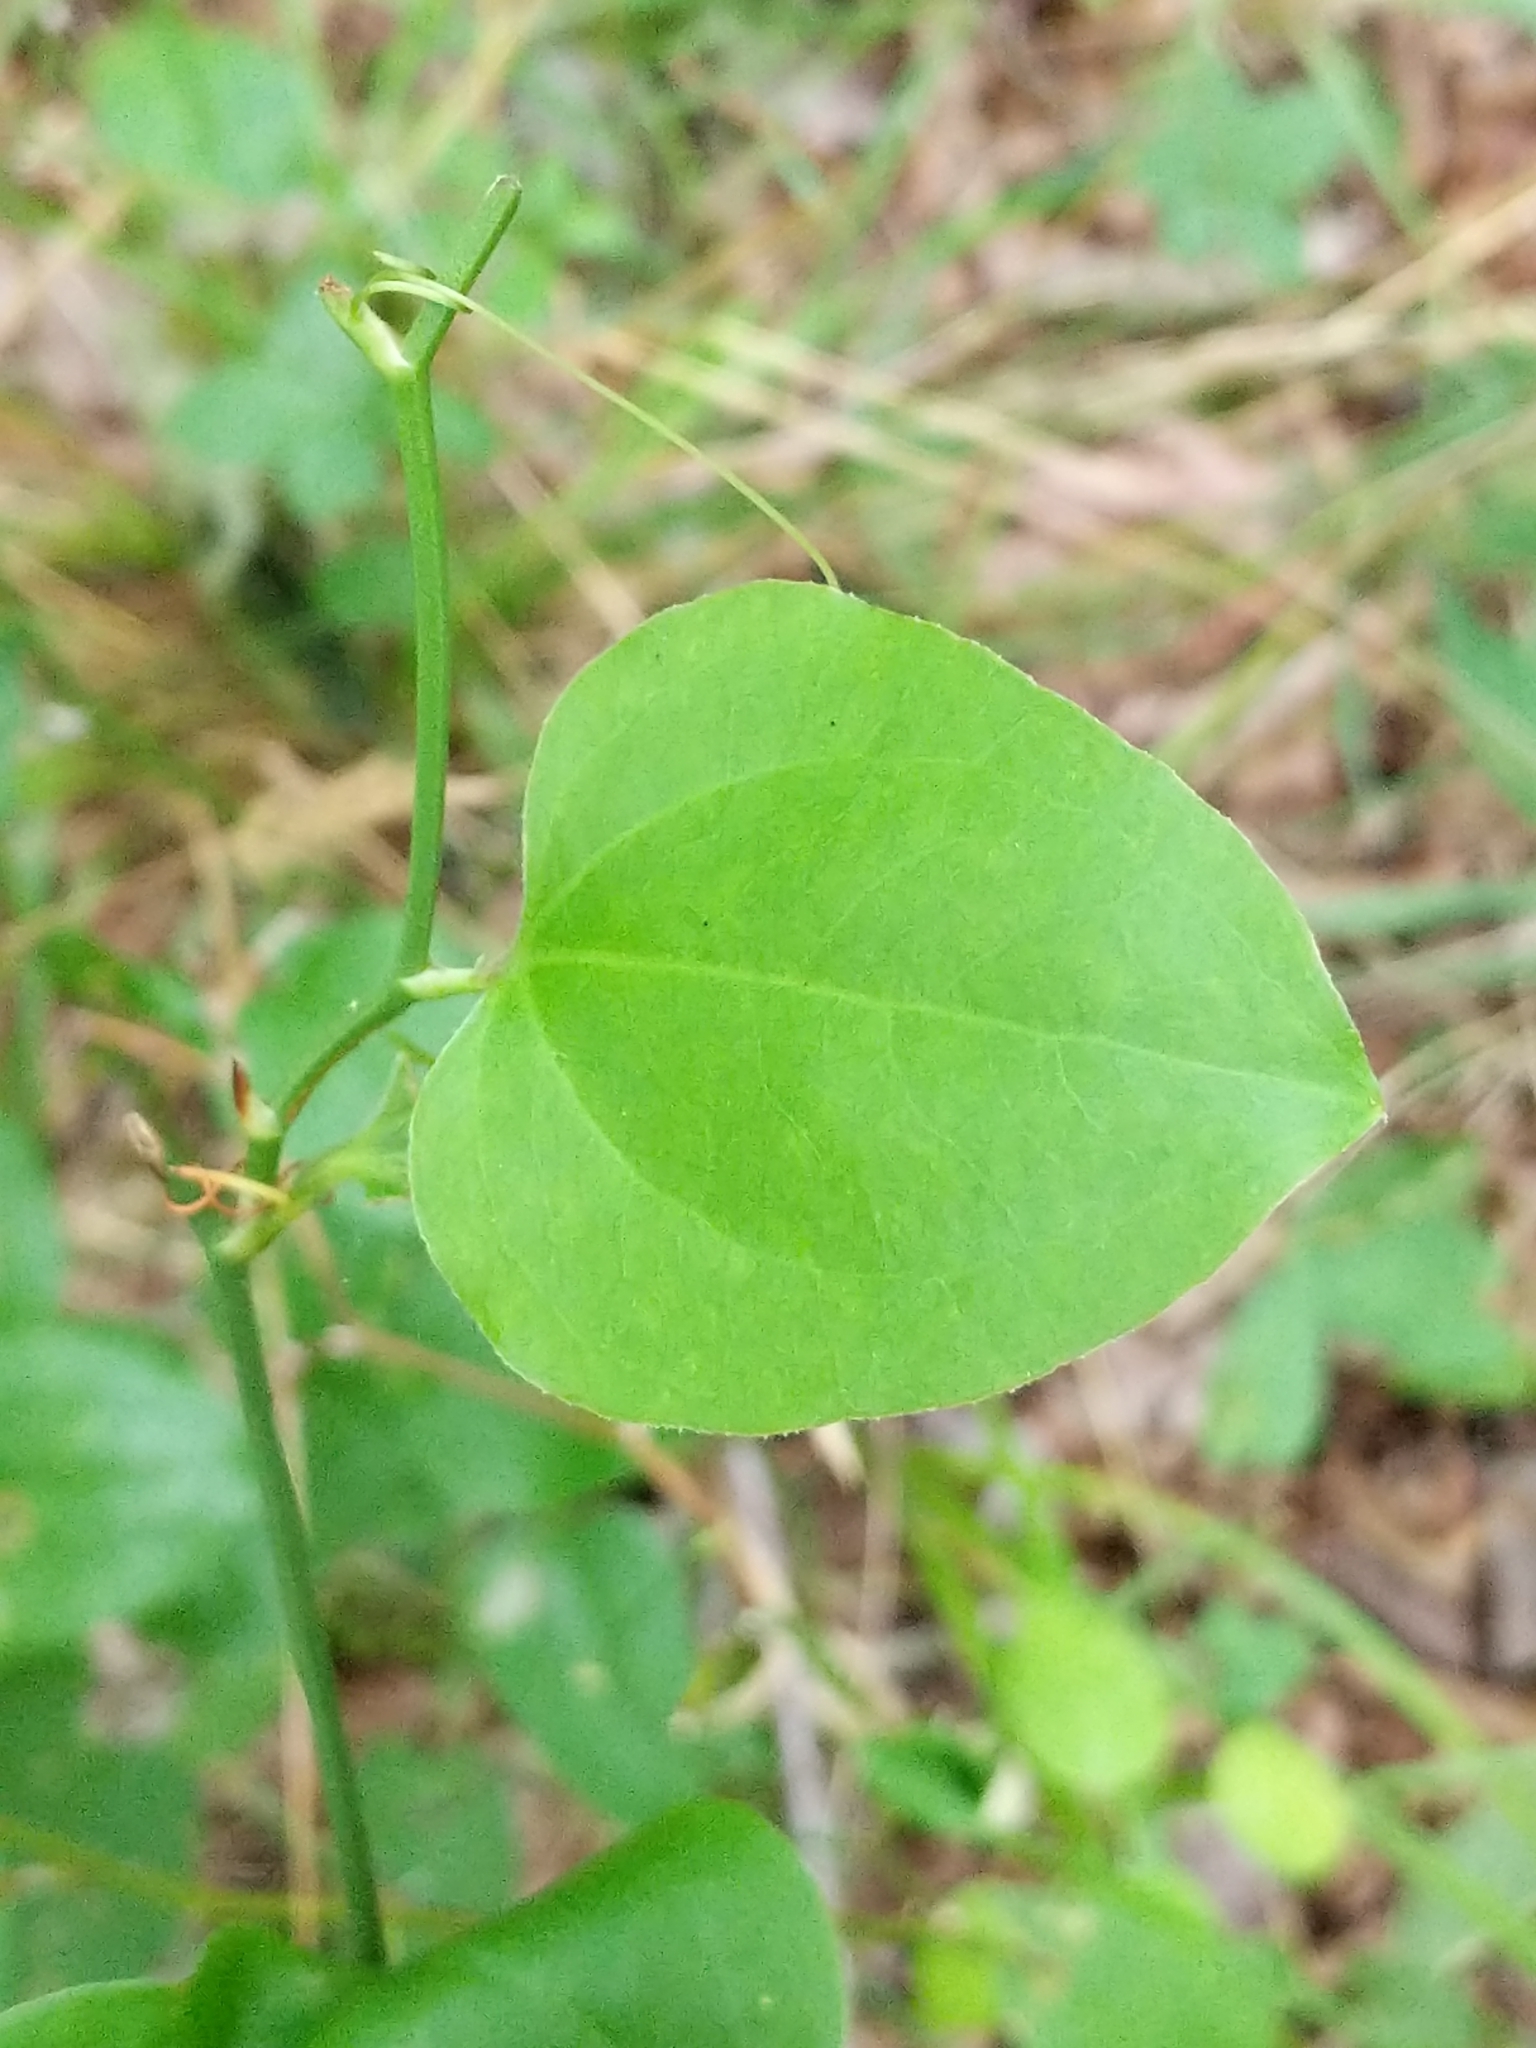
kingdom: Plantae
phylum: Tracheophyta
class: Liliopsida
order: Liliales
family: Smilacaceae
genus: Smilax
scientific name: Smilax rotundifolia
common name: Bullbriar
